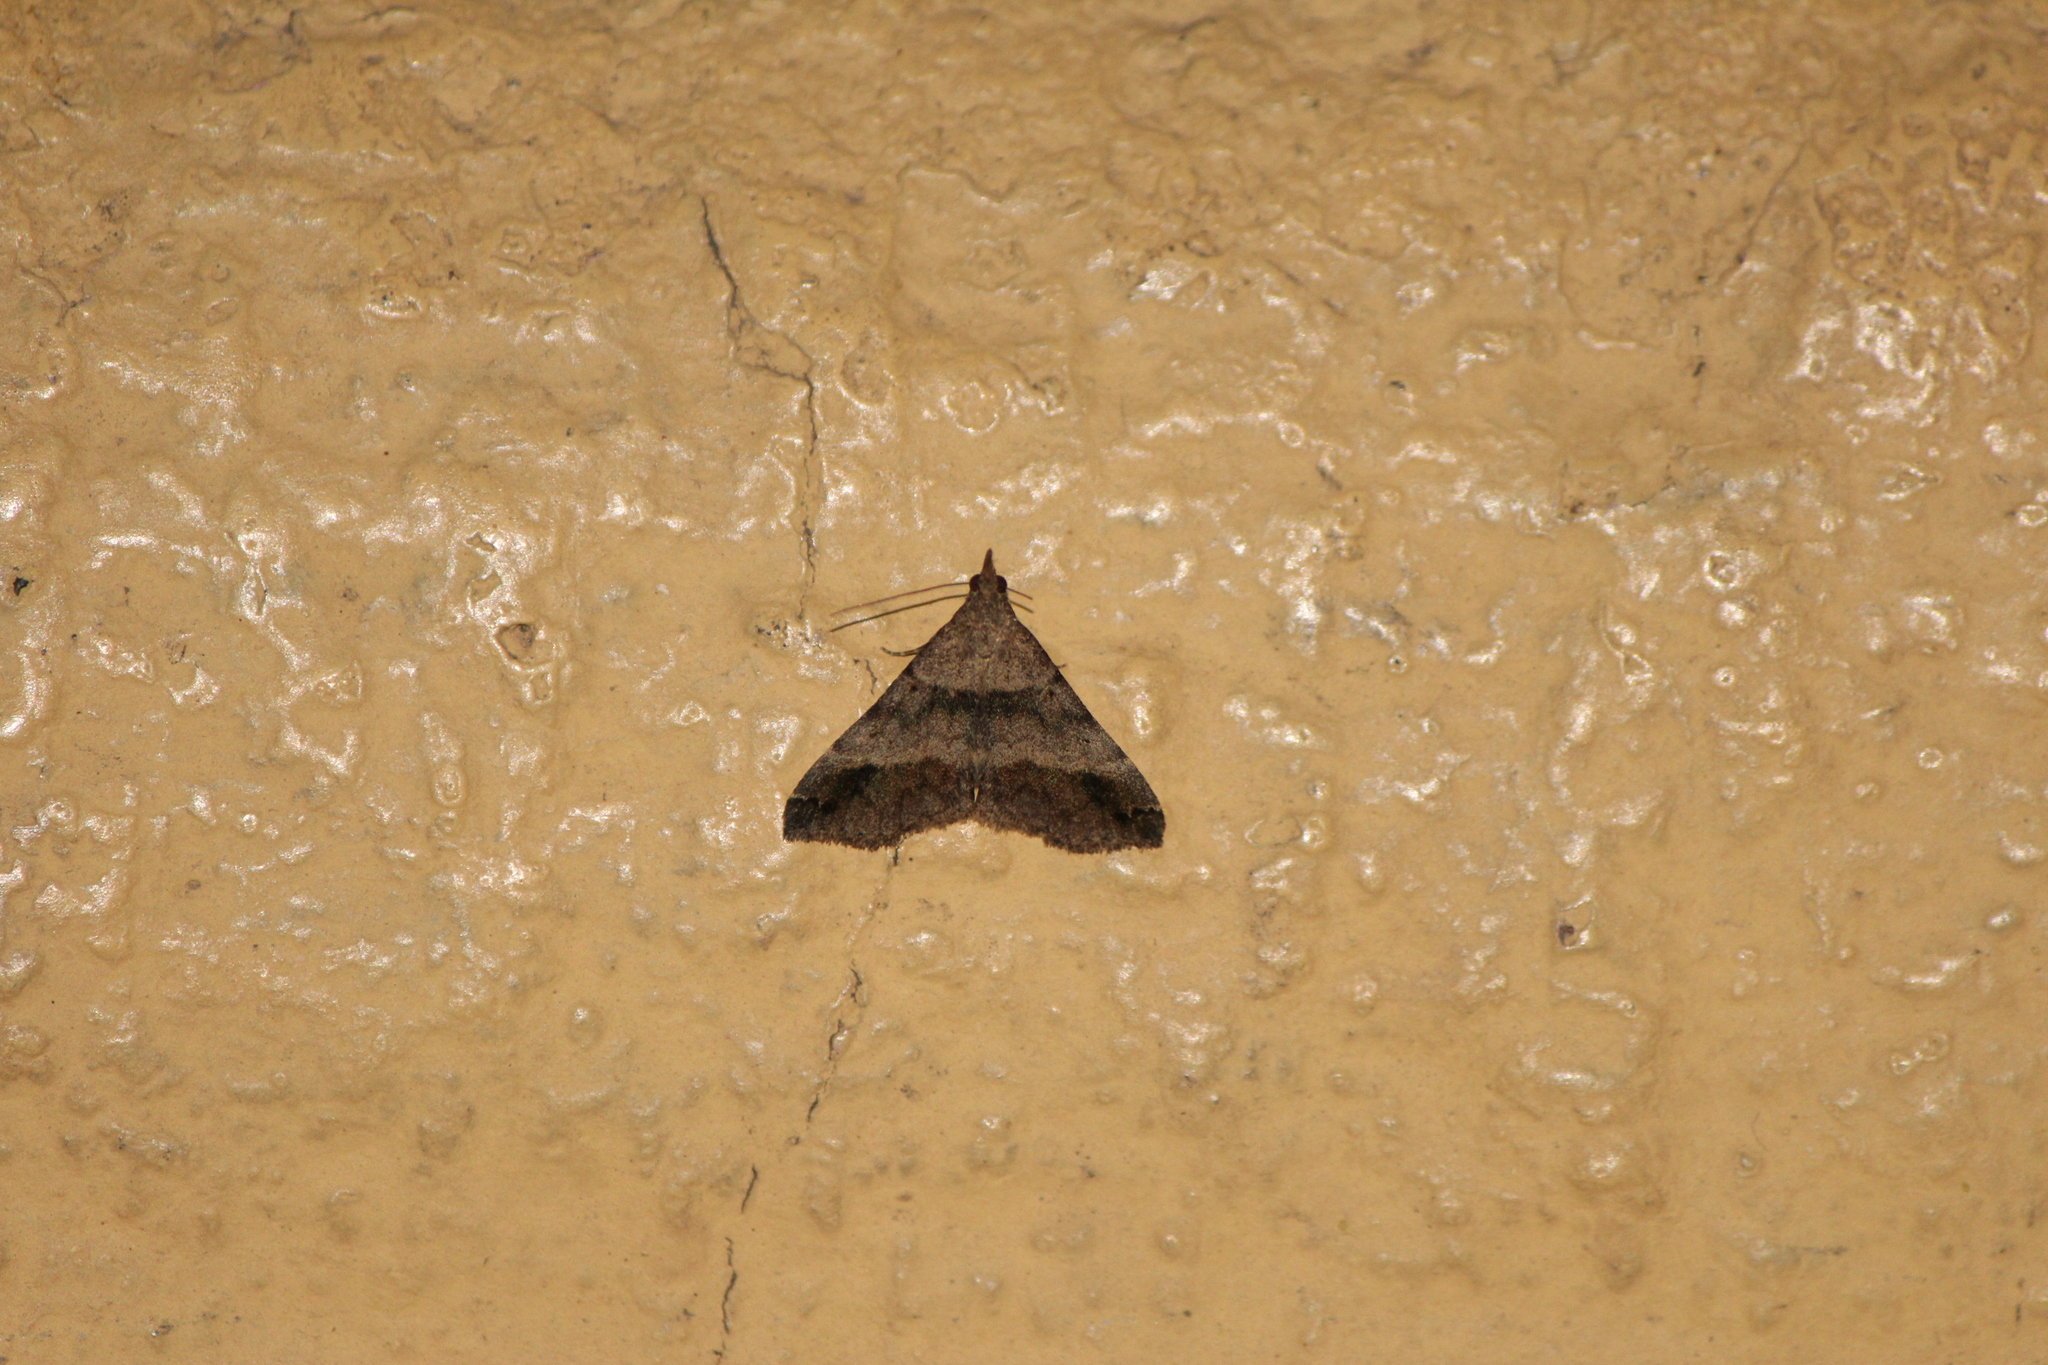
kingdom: Animalia
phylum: Arthropoda
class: Insecta
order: Lepidoptera
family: Erebidae
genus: Lascoria
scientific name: Lascoria ambigualis
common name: Ambiguous moth
